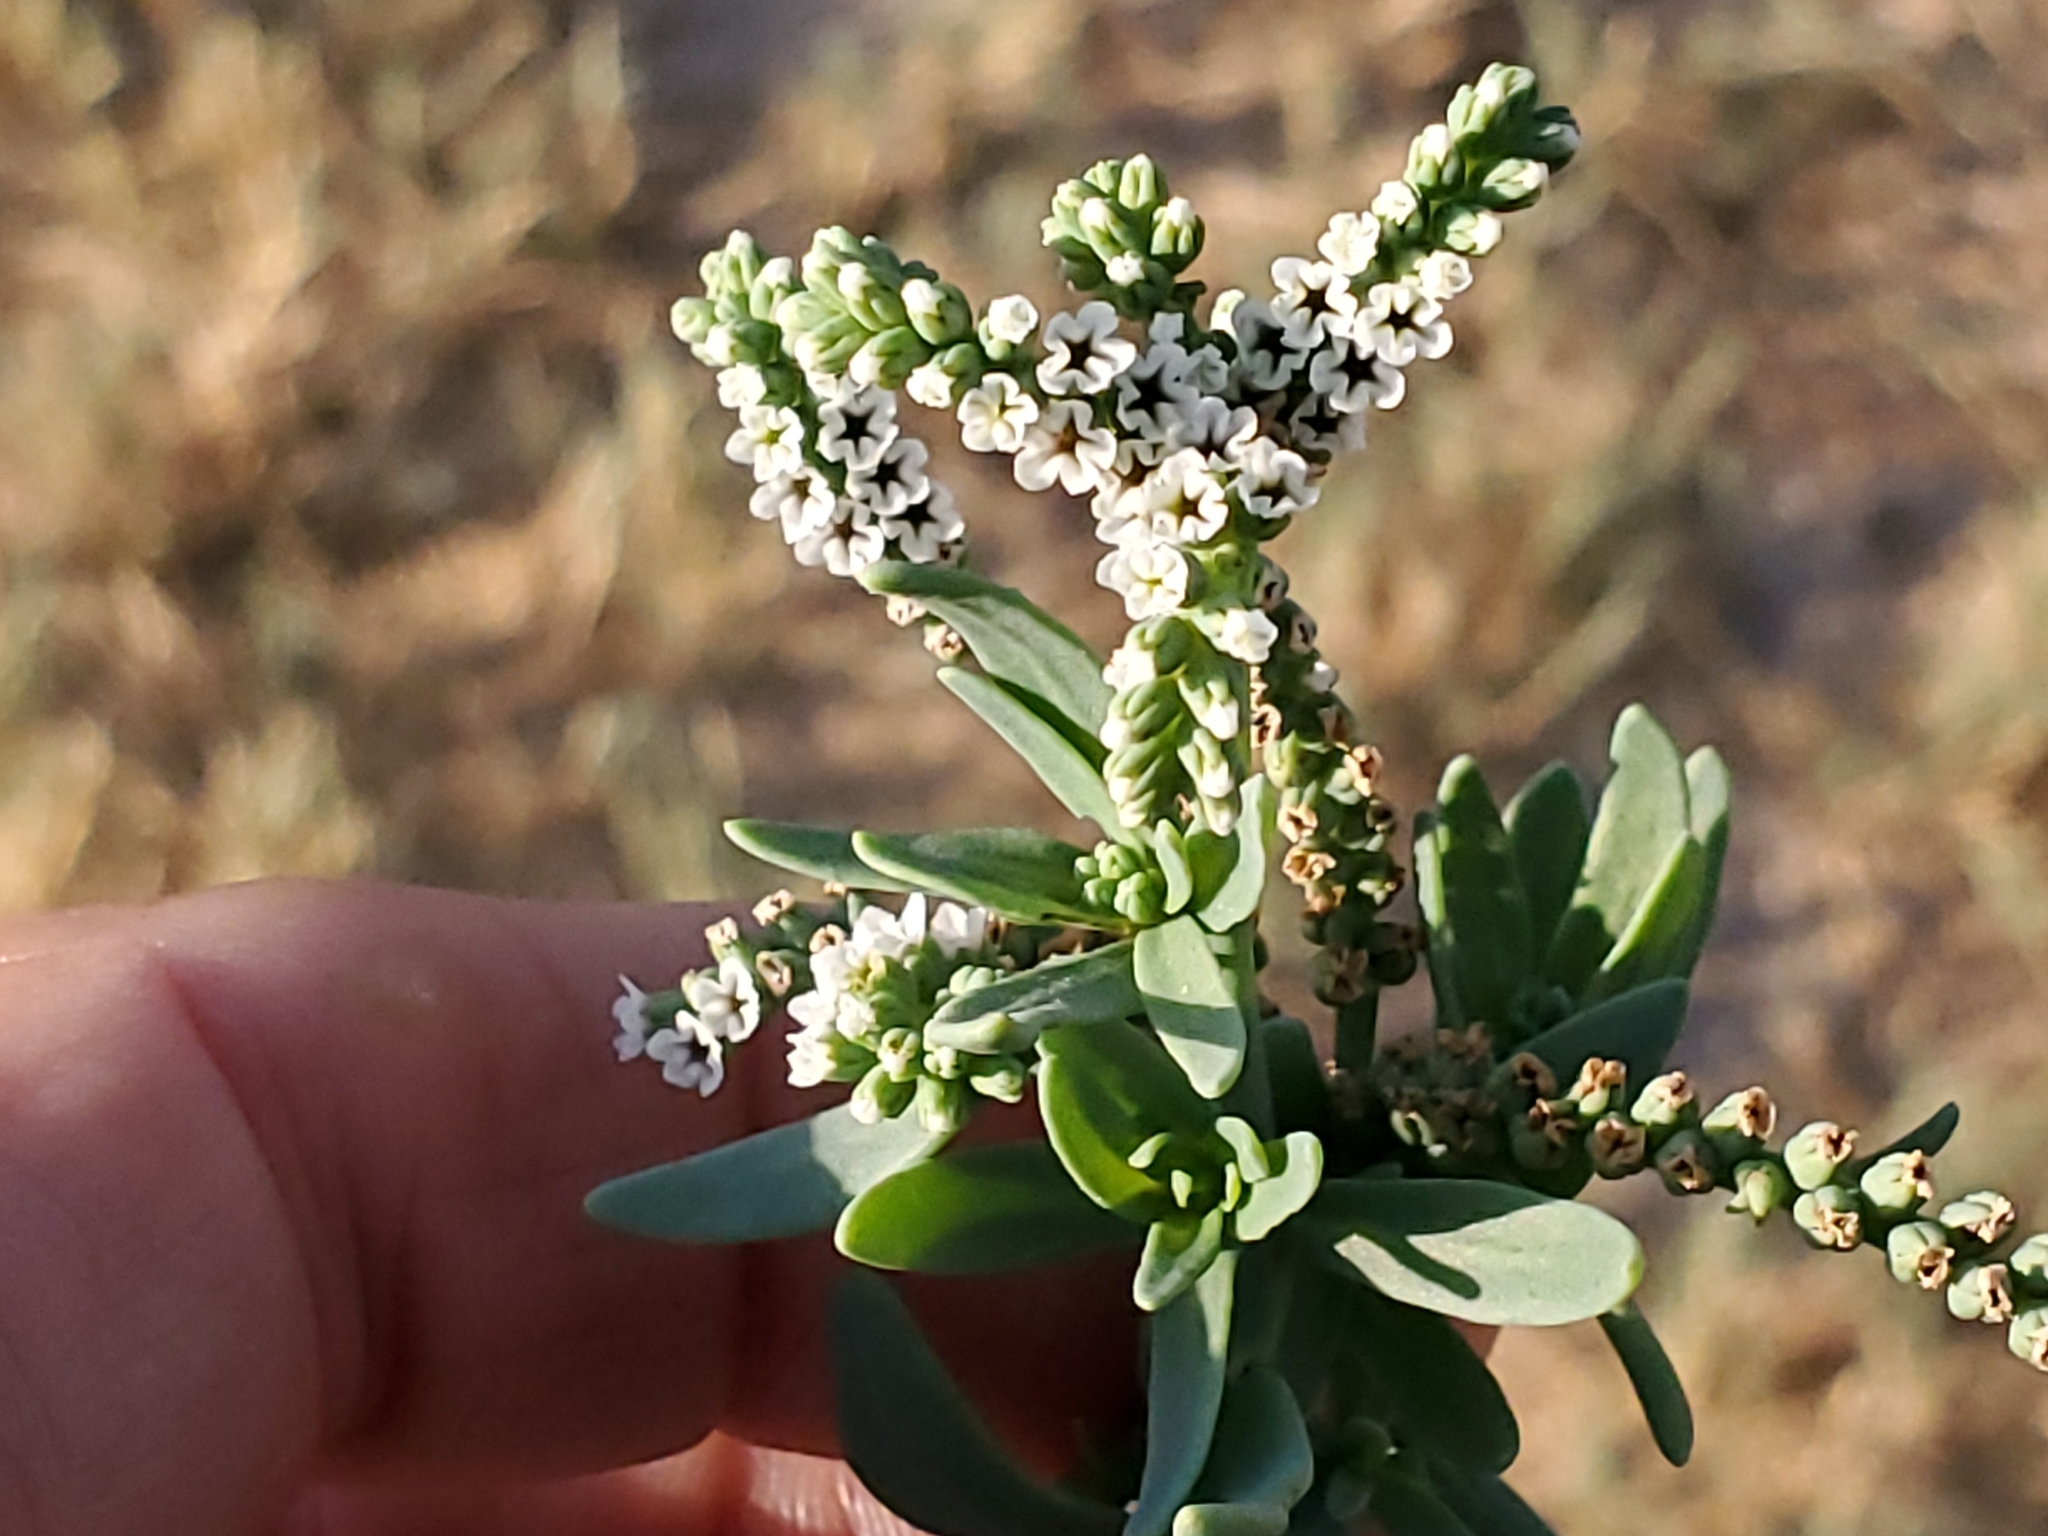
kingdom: Plantae
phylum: Tracheophyta
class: Magnoliopsida
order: Boraginales
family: Heliotropiaceae
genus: Heliotropium
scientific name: Heliotropium curassavicum
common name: Seaside heliotrope
